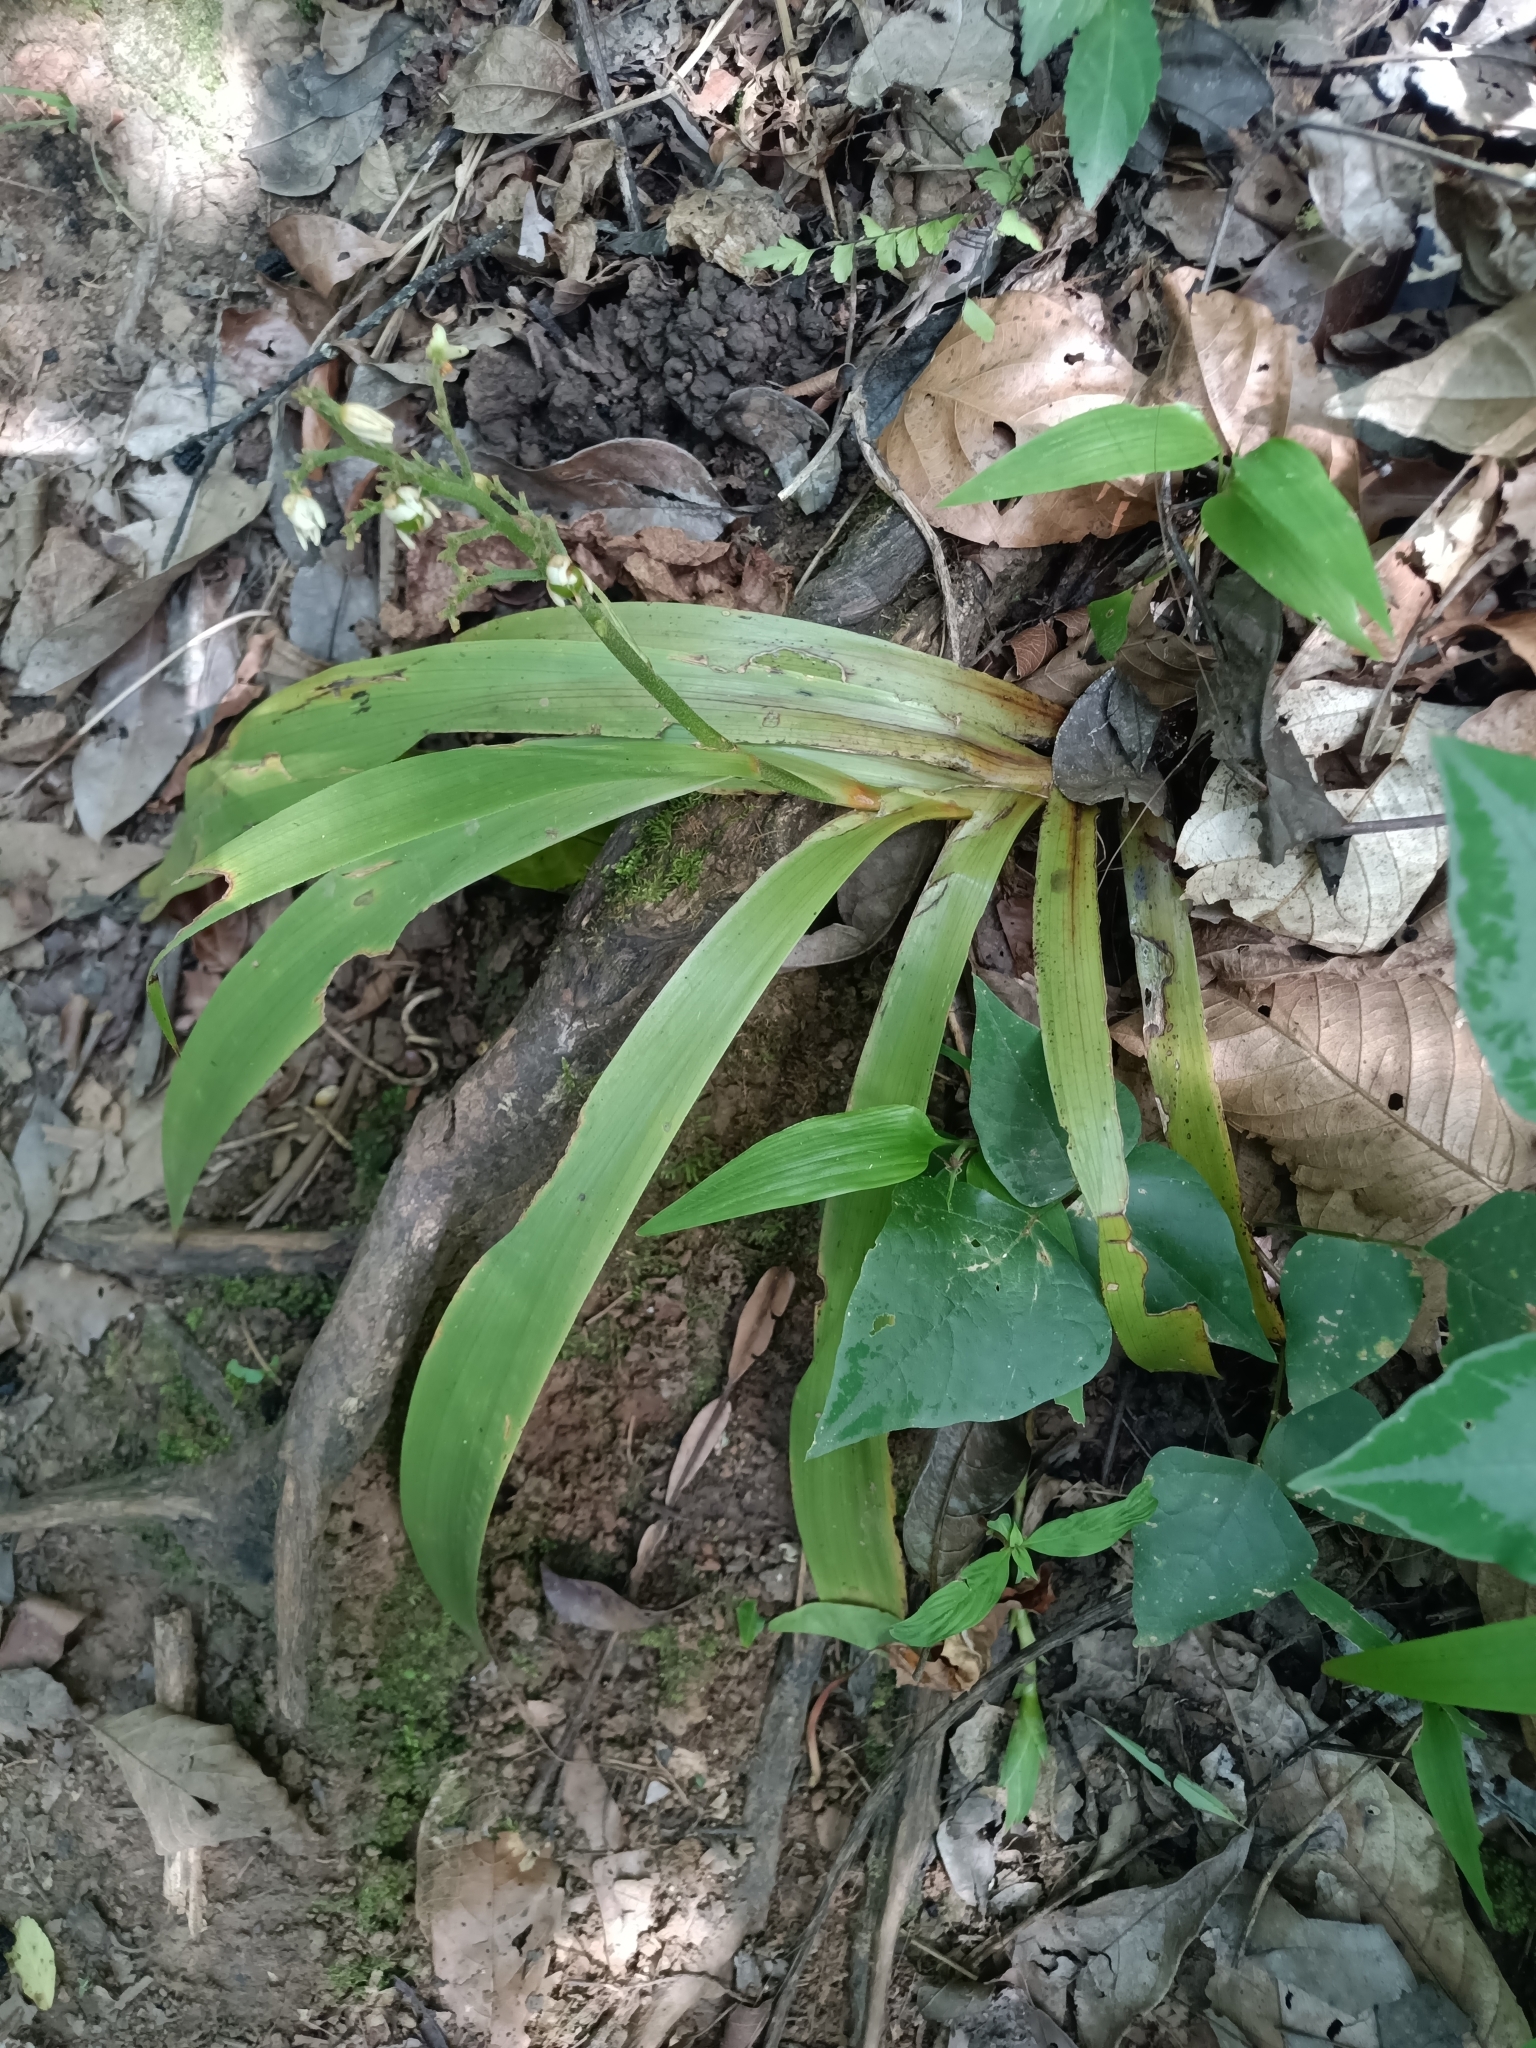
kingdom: Plantae
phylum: Tracheophyta
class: Liliopsida
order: Commelinales
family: Haemodoraceae
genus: Xiphidium
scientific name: Xiphidium caeruleum
